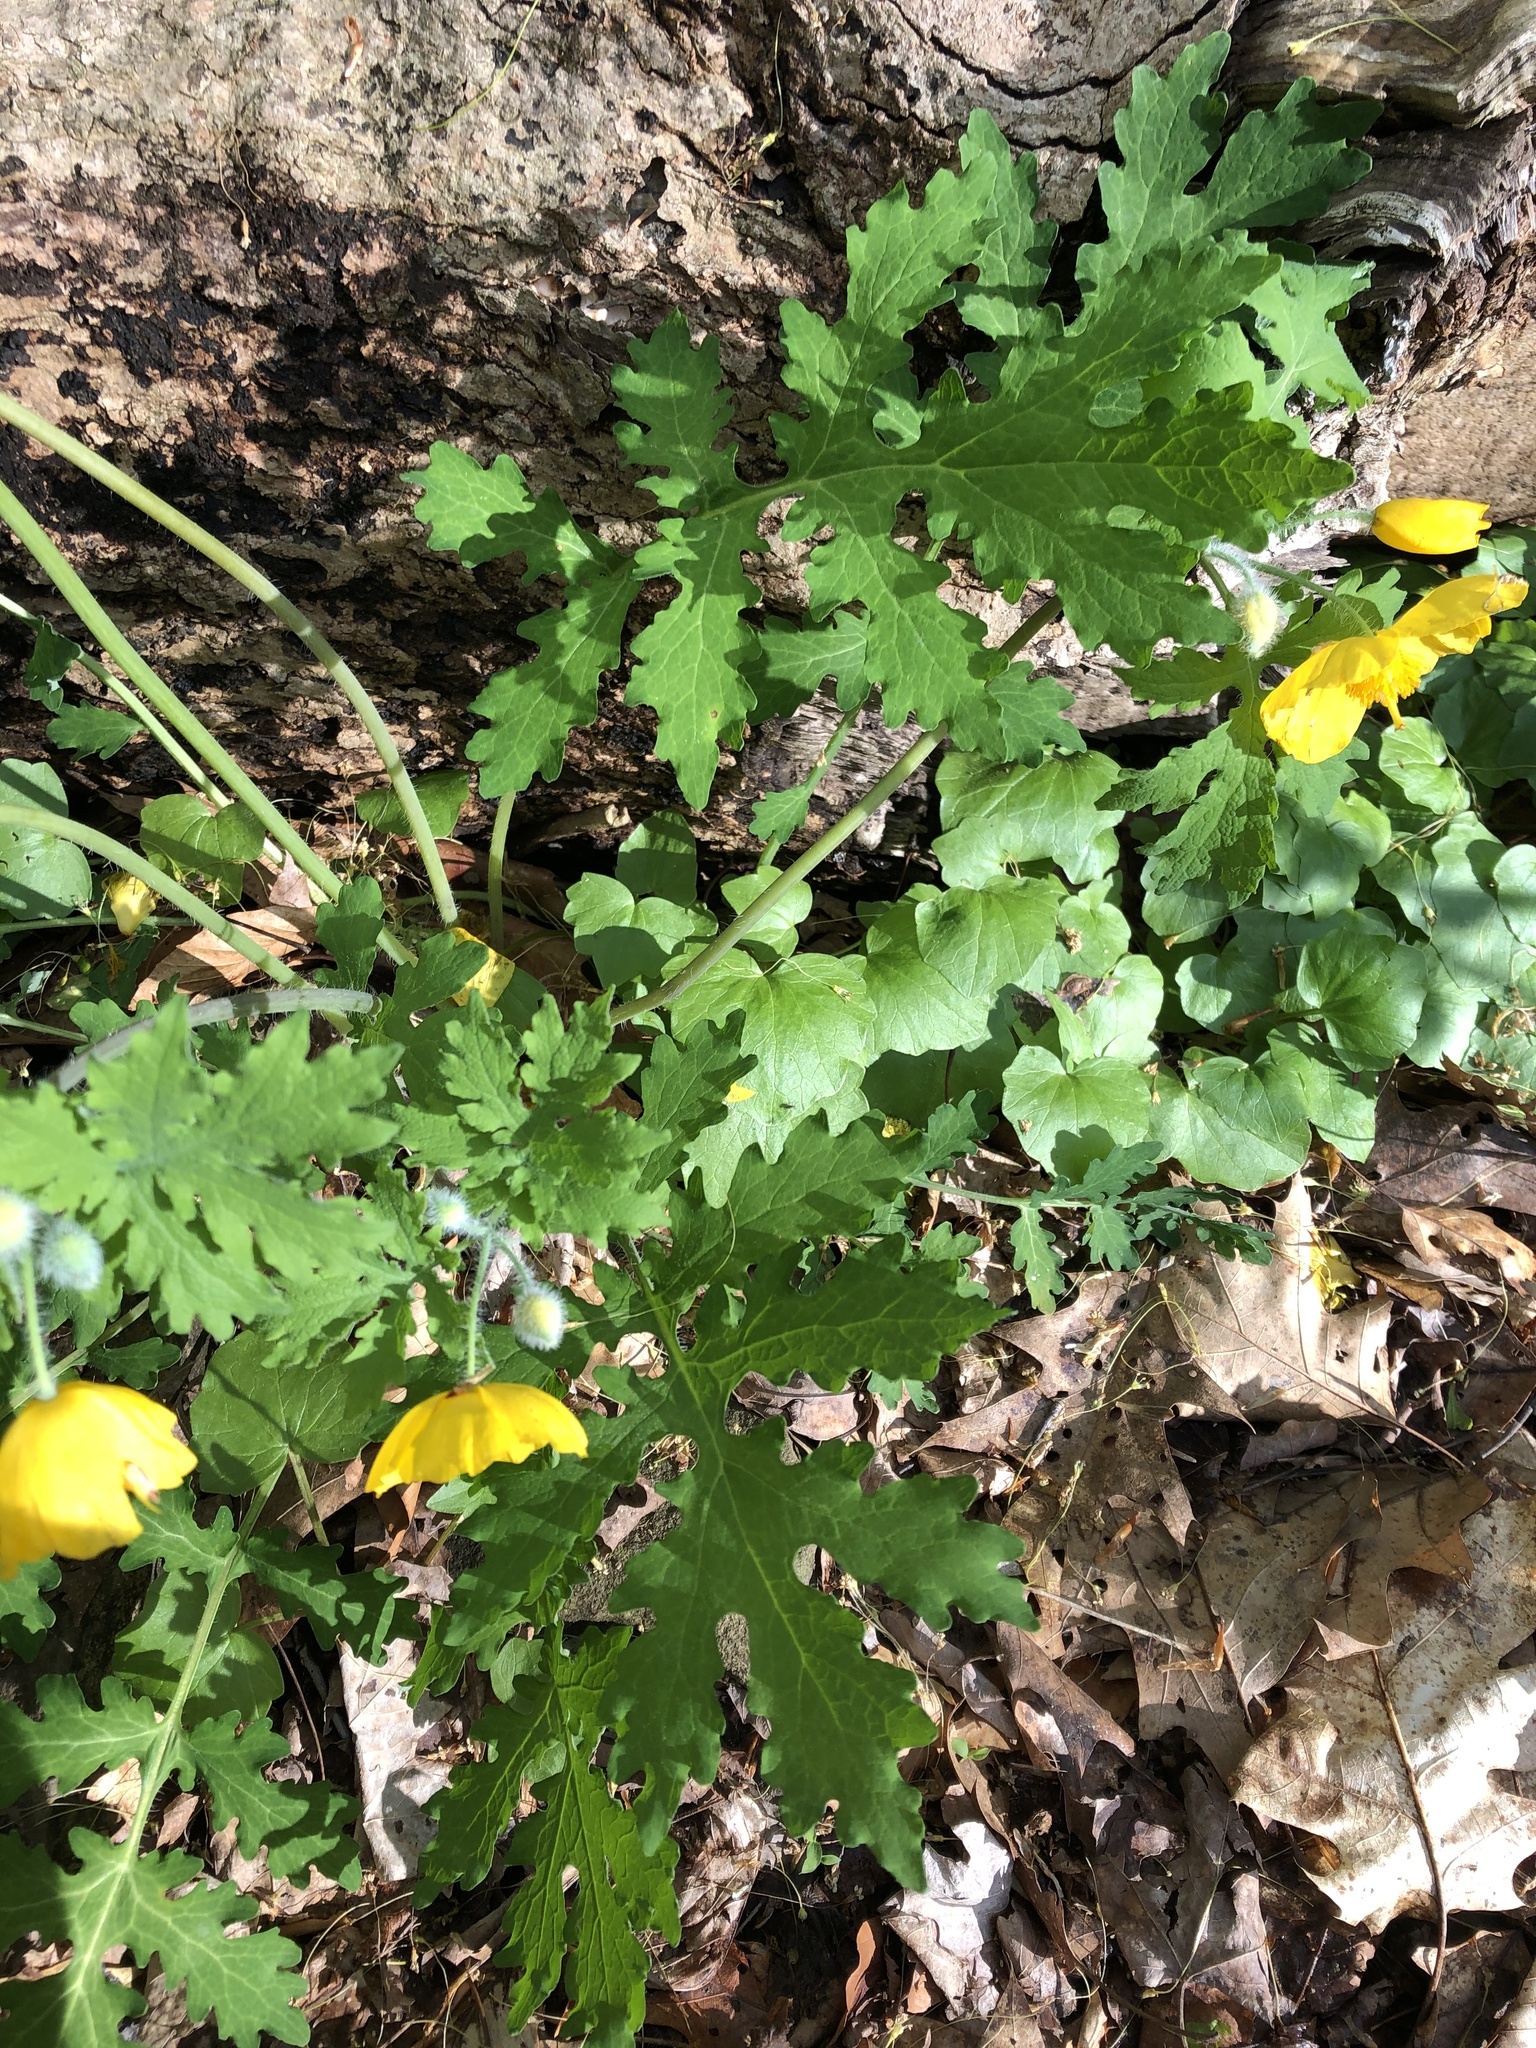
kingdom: Plantae
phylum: Tracheophyta
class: Magnoliopsida
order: Ranunculales
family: Papaveraceae
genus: Stylophorum
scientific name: Stylophorum diphyllum
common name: Celandine poppy
